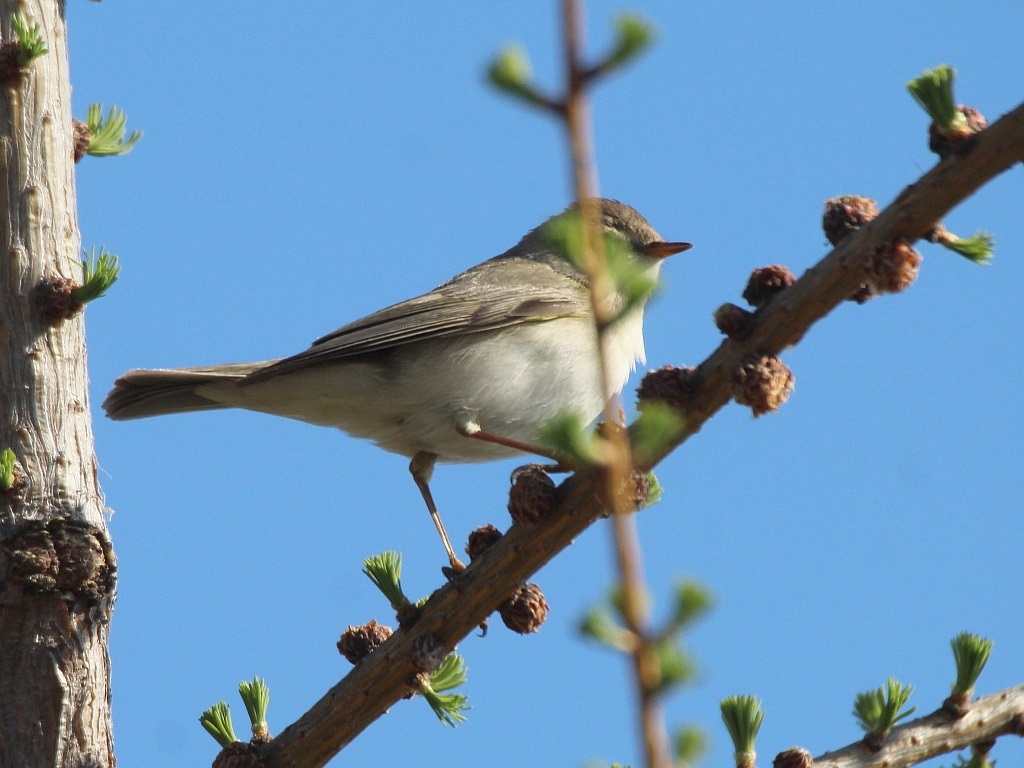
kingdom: Animalia
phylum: Chordata
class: Aves
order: Passeriformes
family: Phylloscopidae
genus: Phylloscopus
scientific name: Phylloscopus trochilus
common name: Willow warbler
